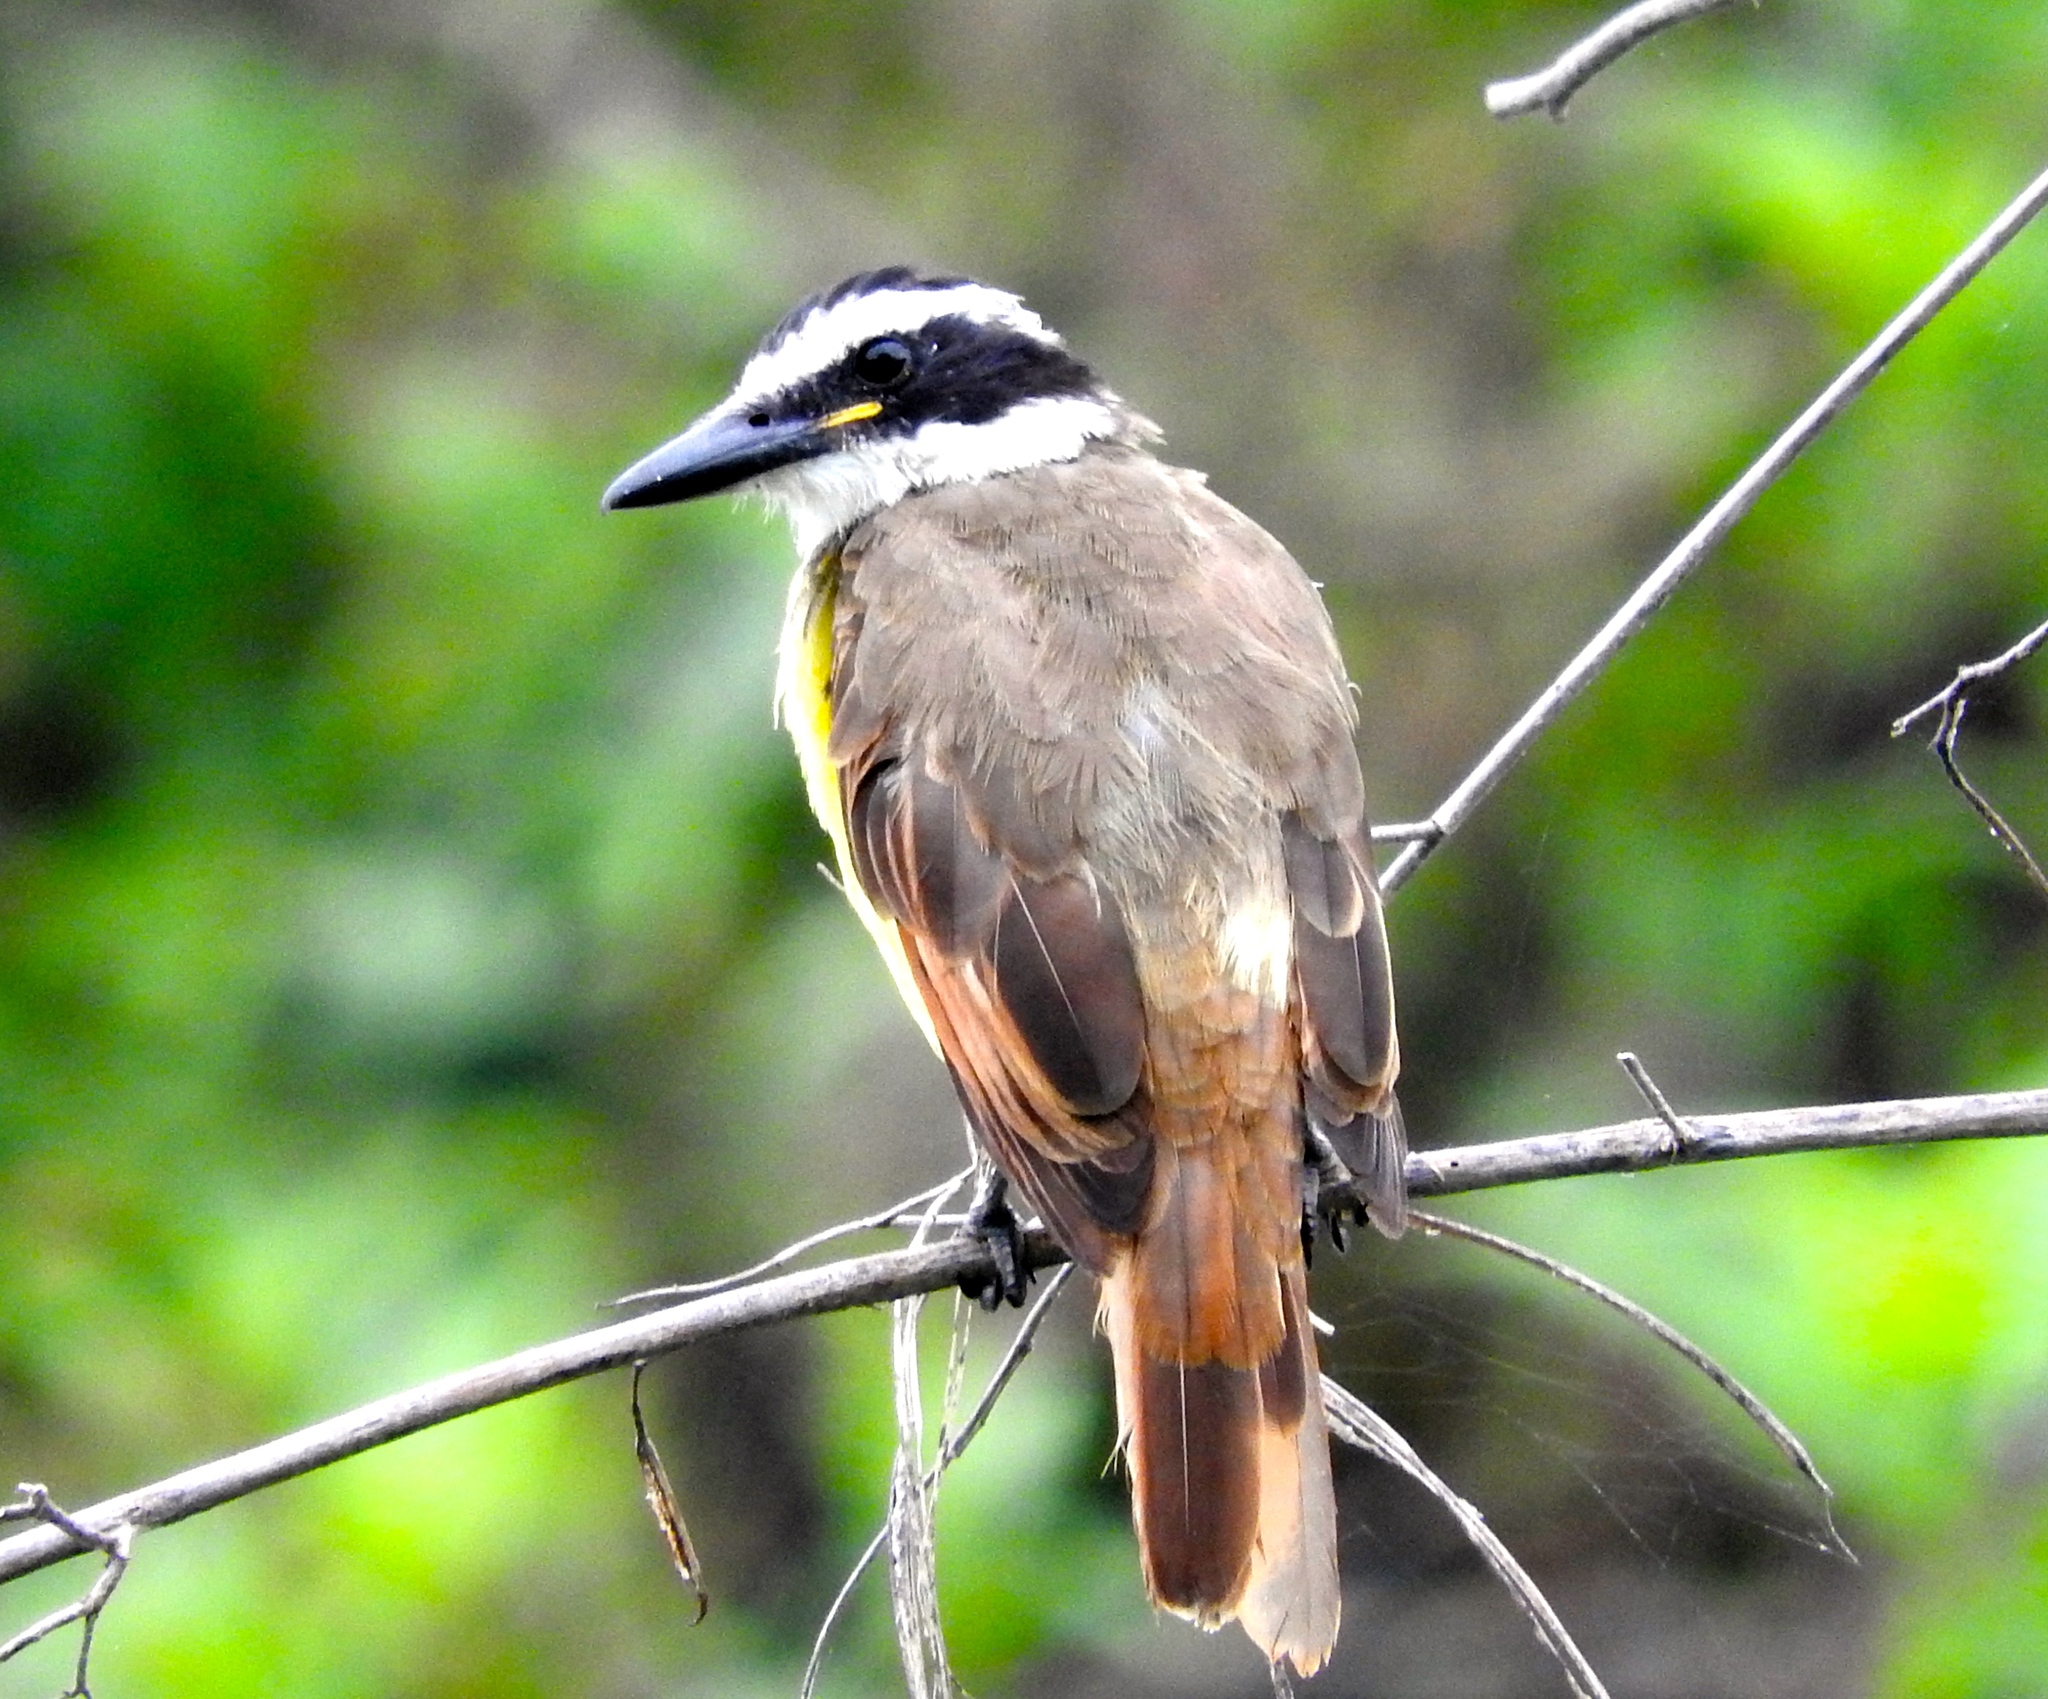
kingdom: Animalia
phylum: Chordata
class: Aves
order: Passeriformes
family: Tyrannidae
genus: Pitangus
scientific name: Pitangus sulphuratus
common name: Great kiskadee
